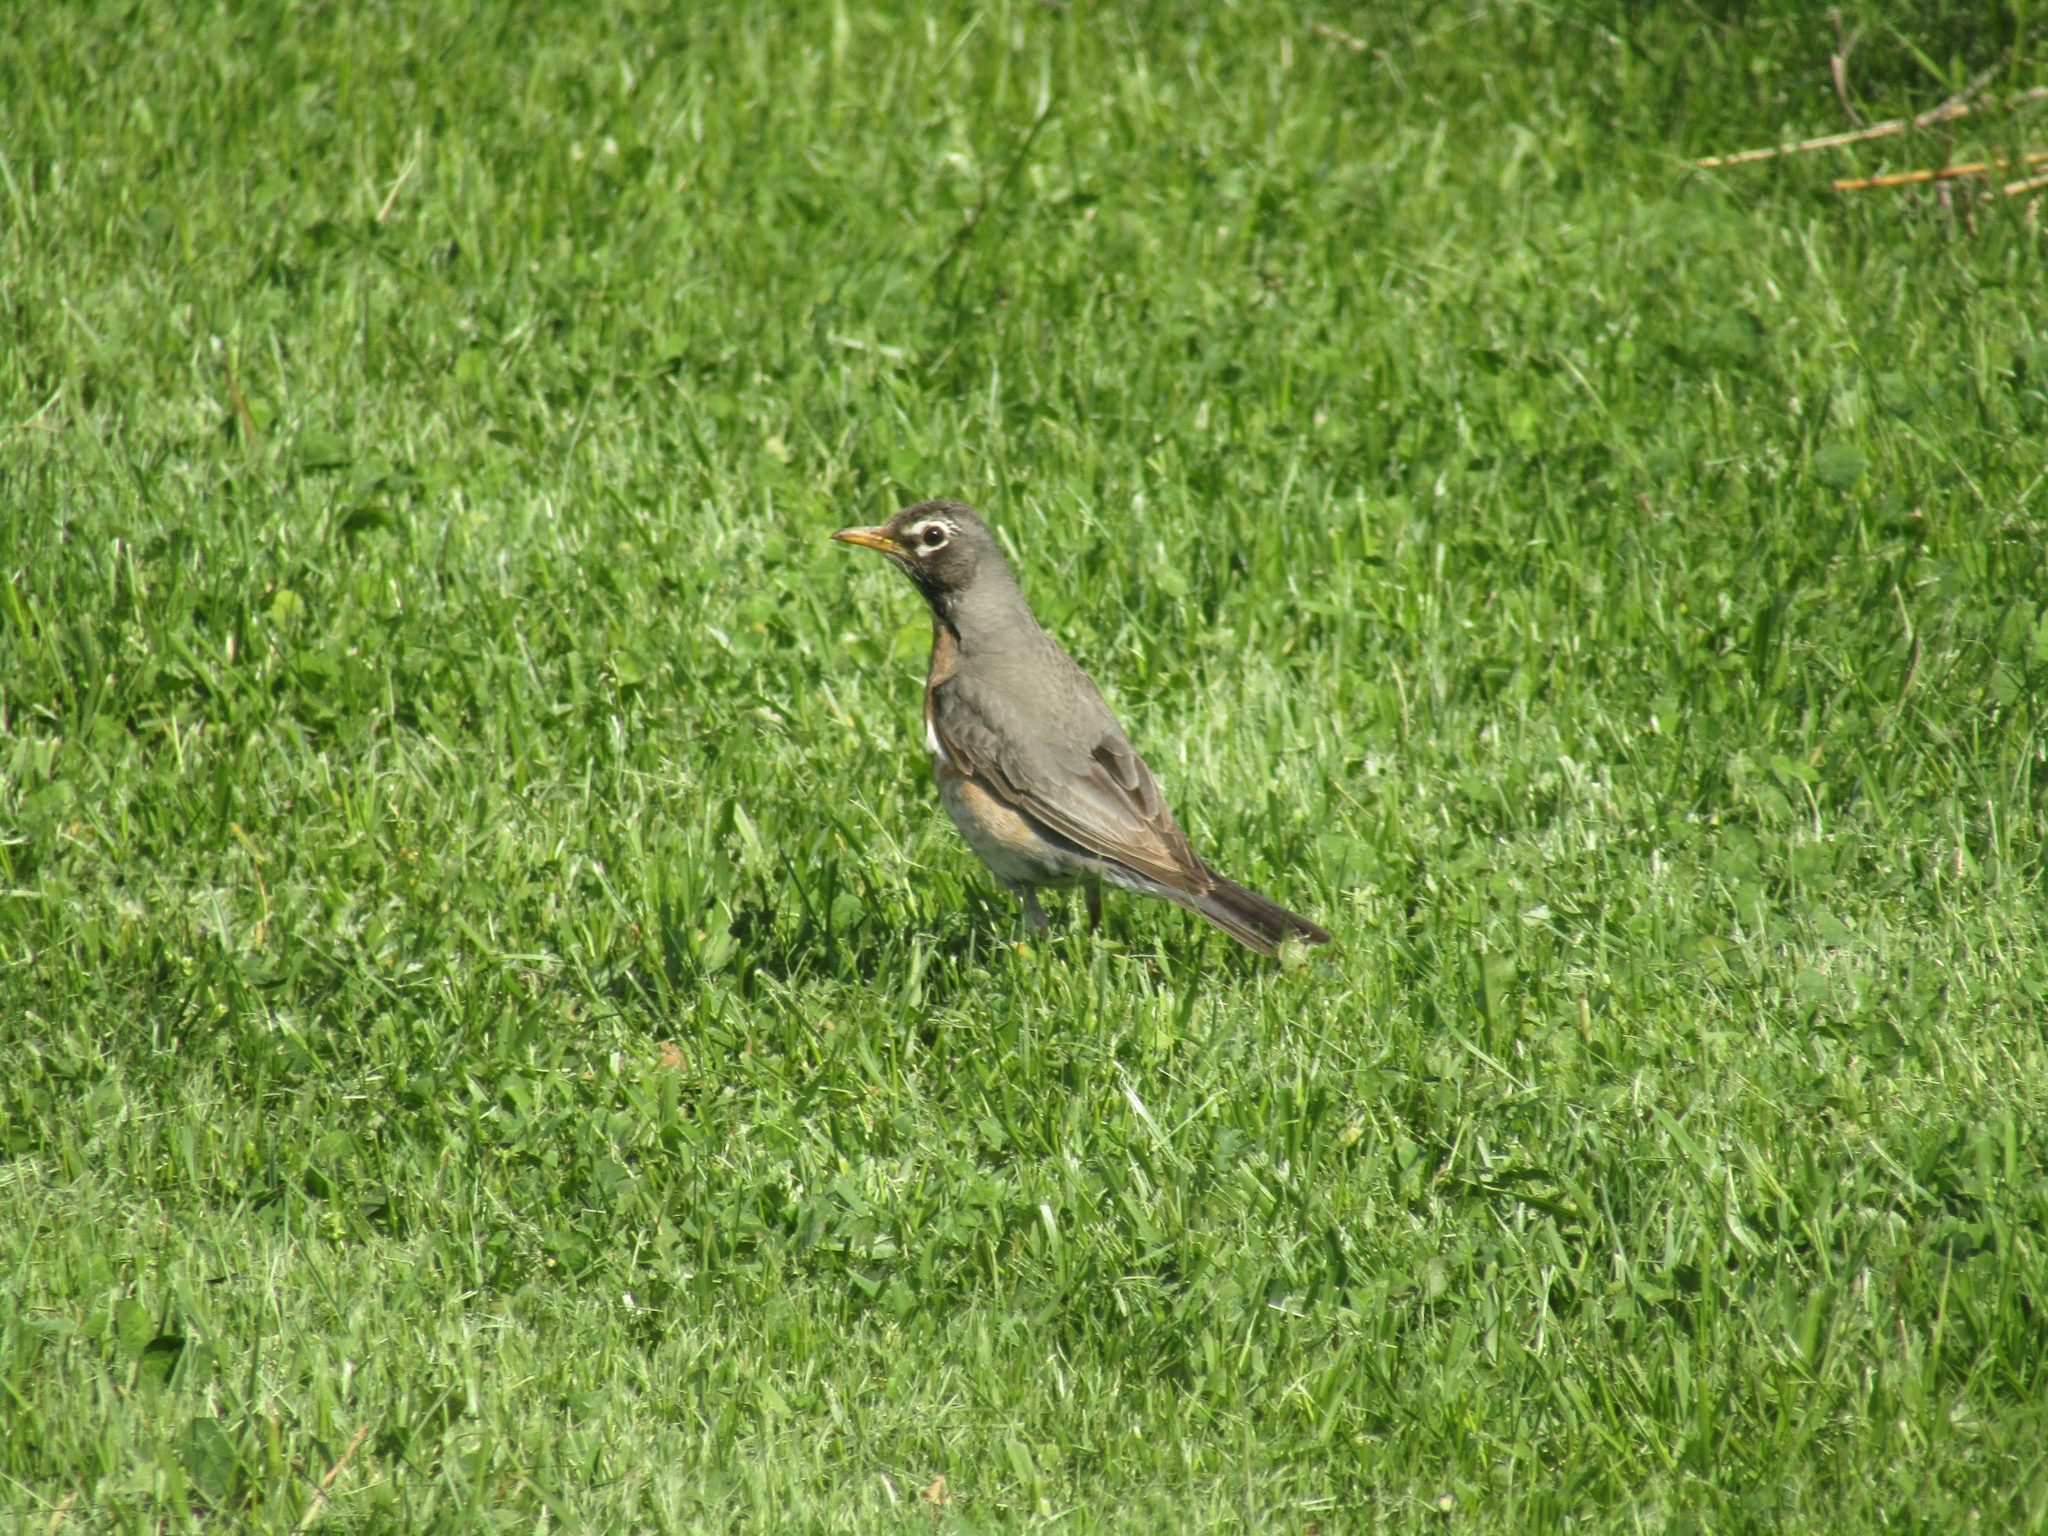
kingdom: Animalia
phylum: Chordata
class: Aves
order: Passeriformes
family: Turdidae
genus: Turdus
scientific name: Turdus migratorius
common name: American robin
